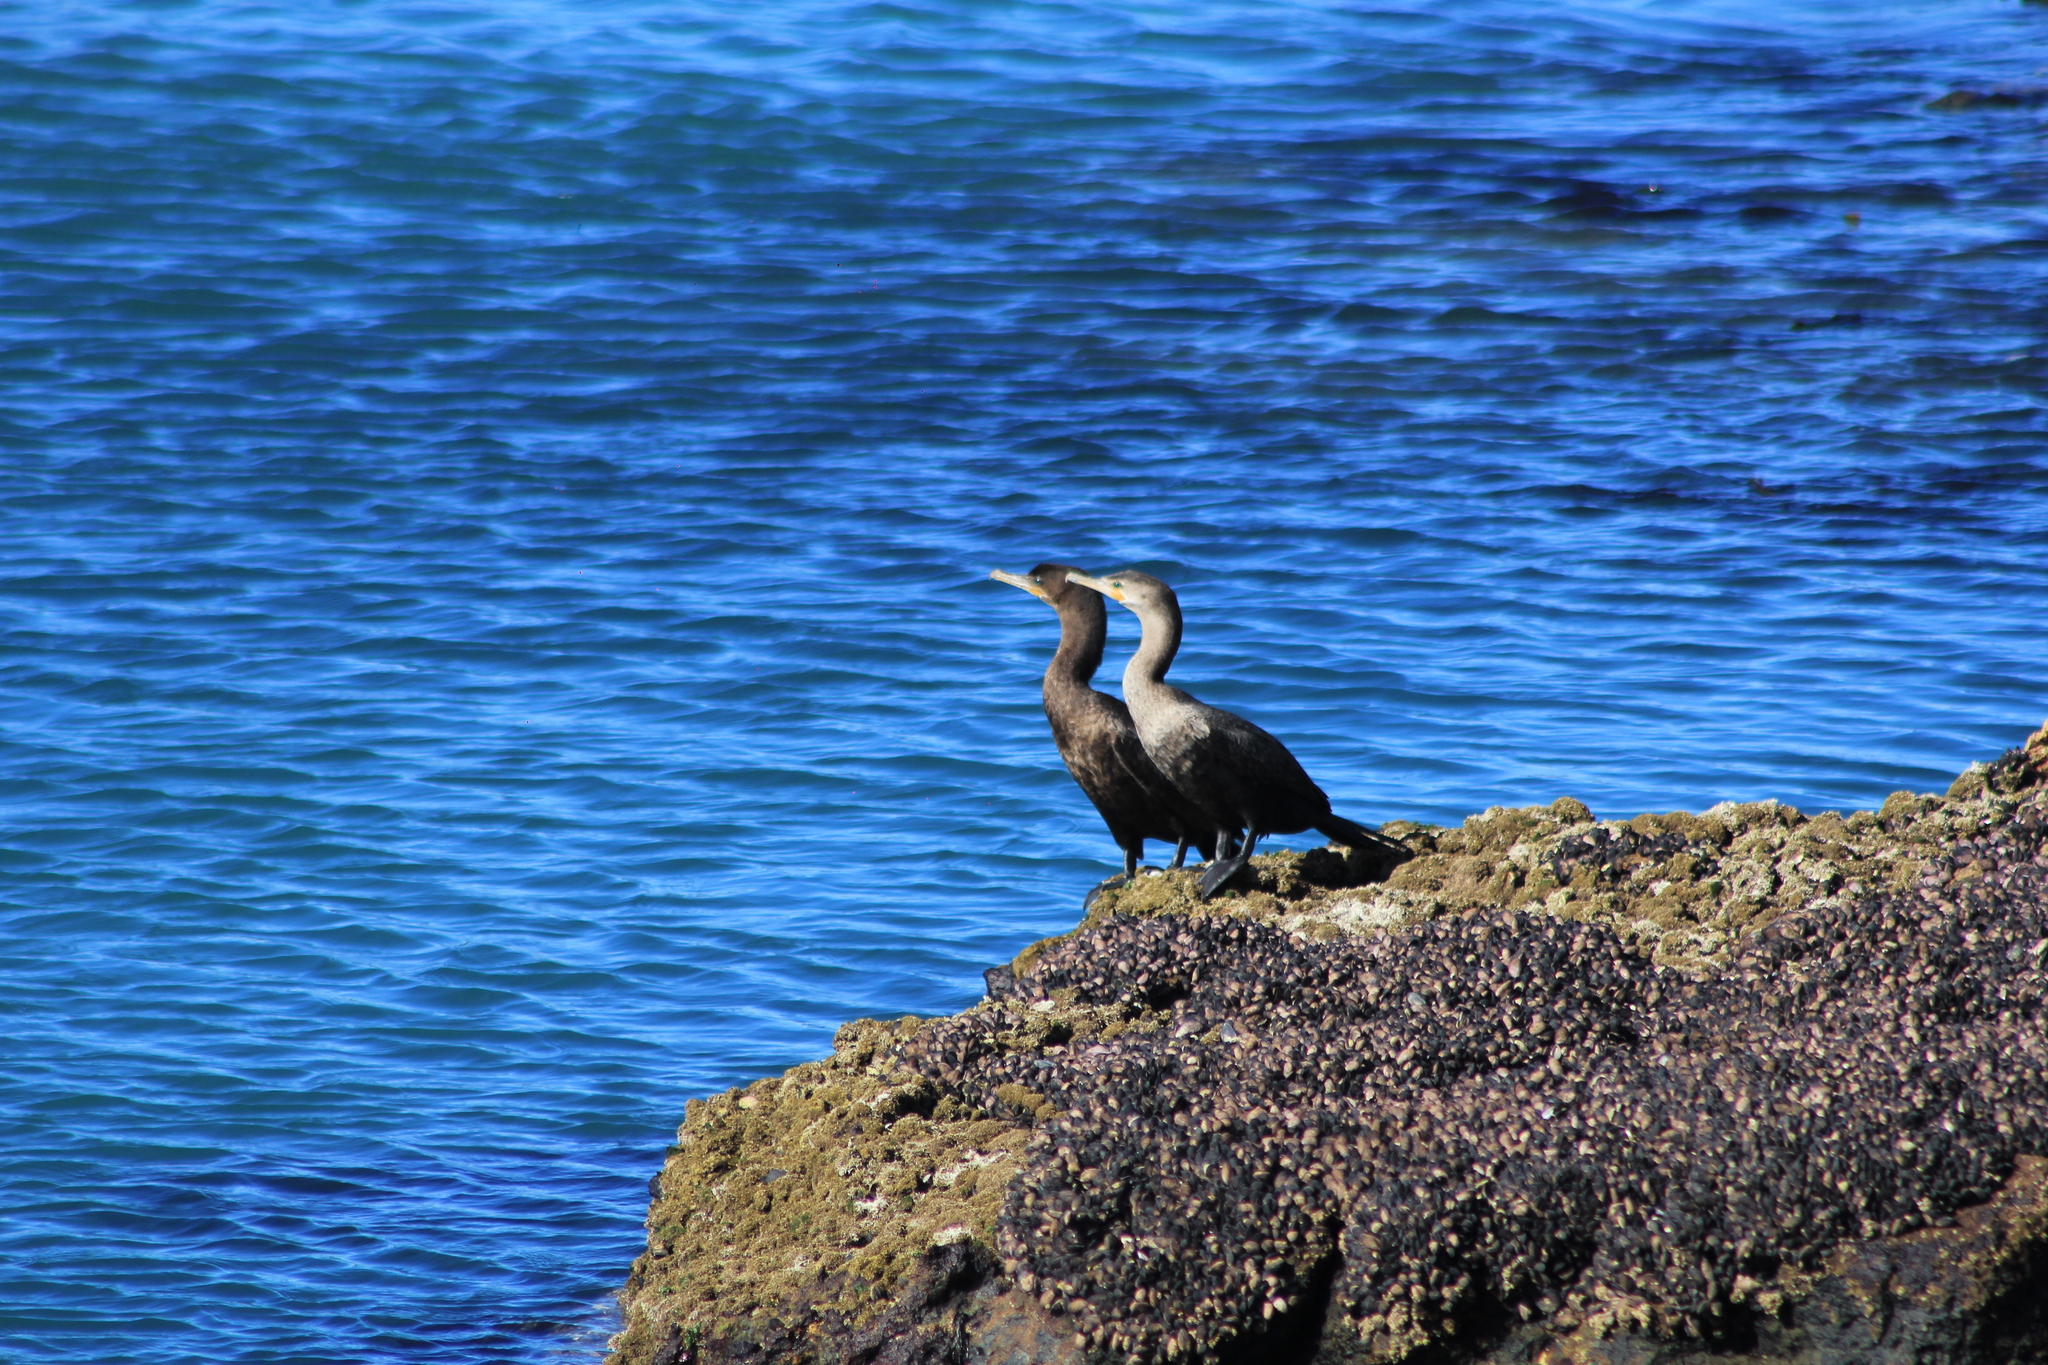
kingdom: Animalia
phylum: Chordata
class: Aves
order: Suliformes
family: Phalacrocoracidae
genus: Phalacrocorax
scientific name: Phalacrocorax brasilianus
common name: Neotropic cormorant
